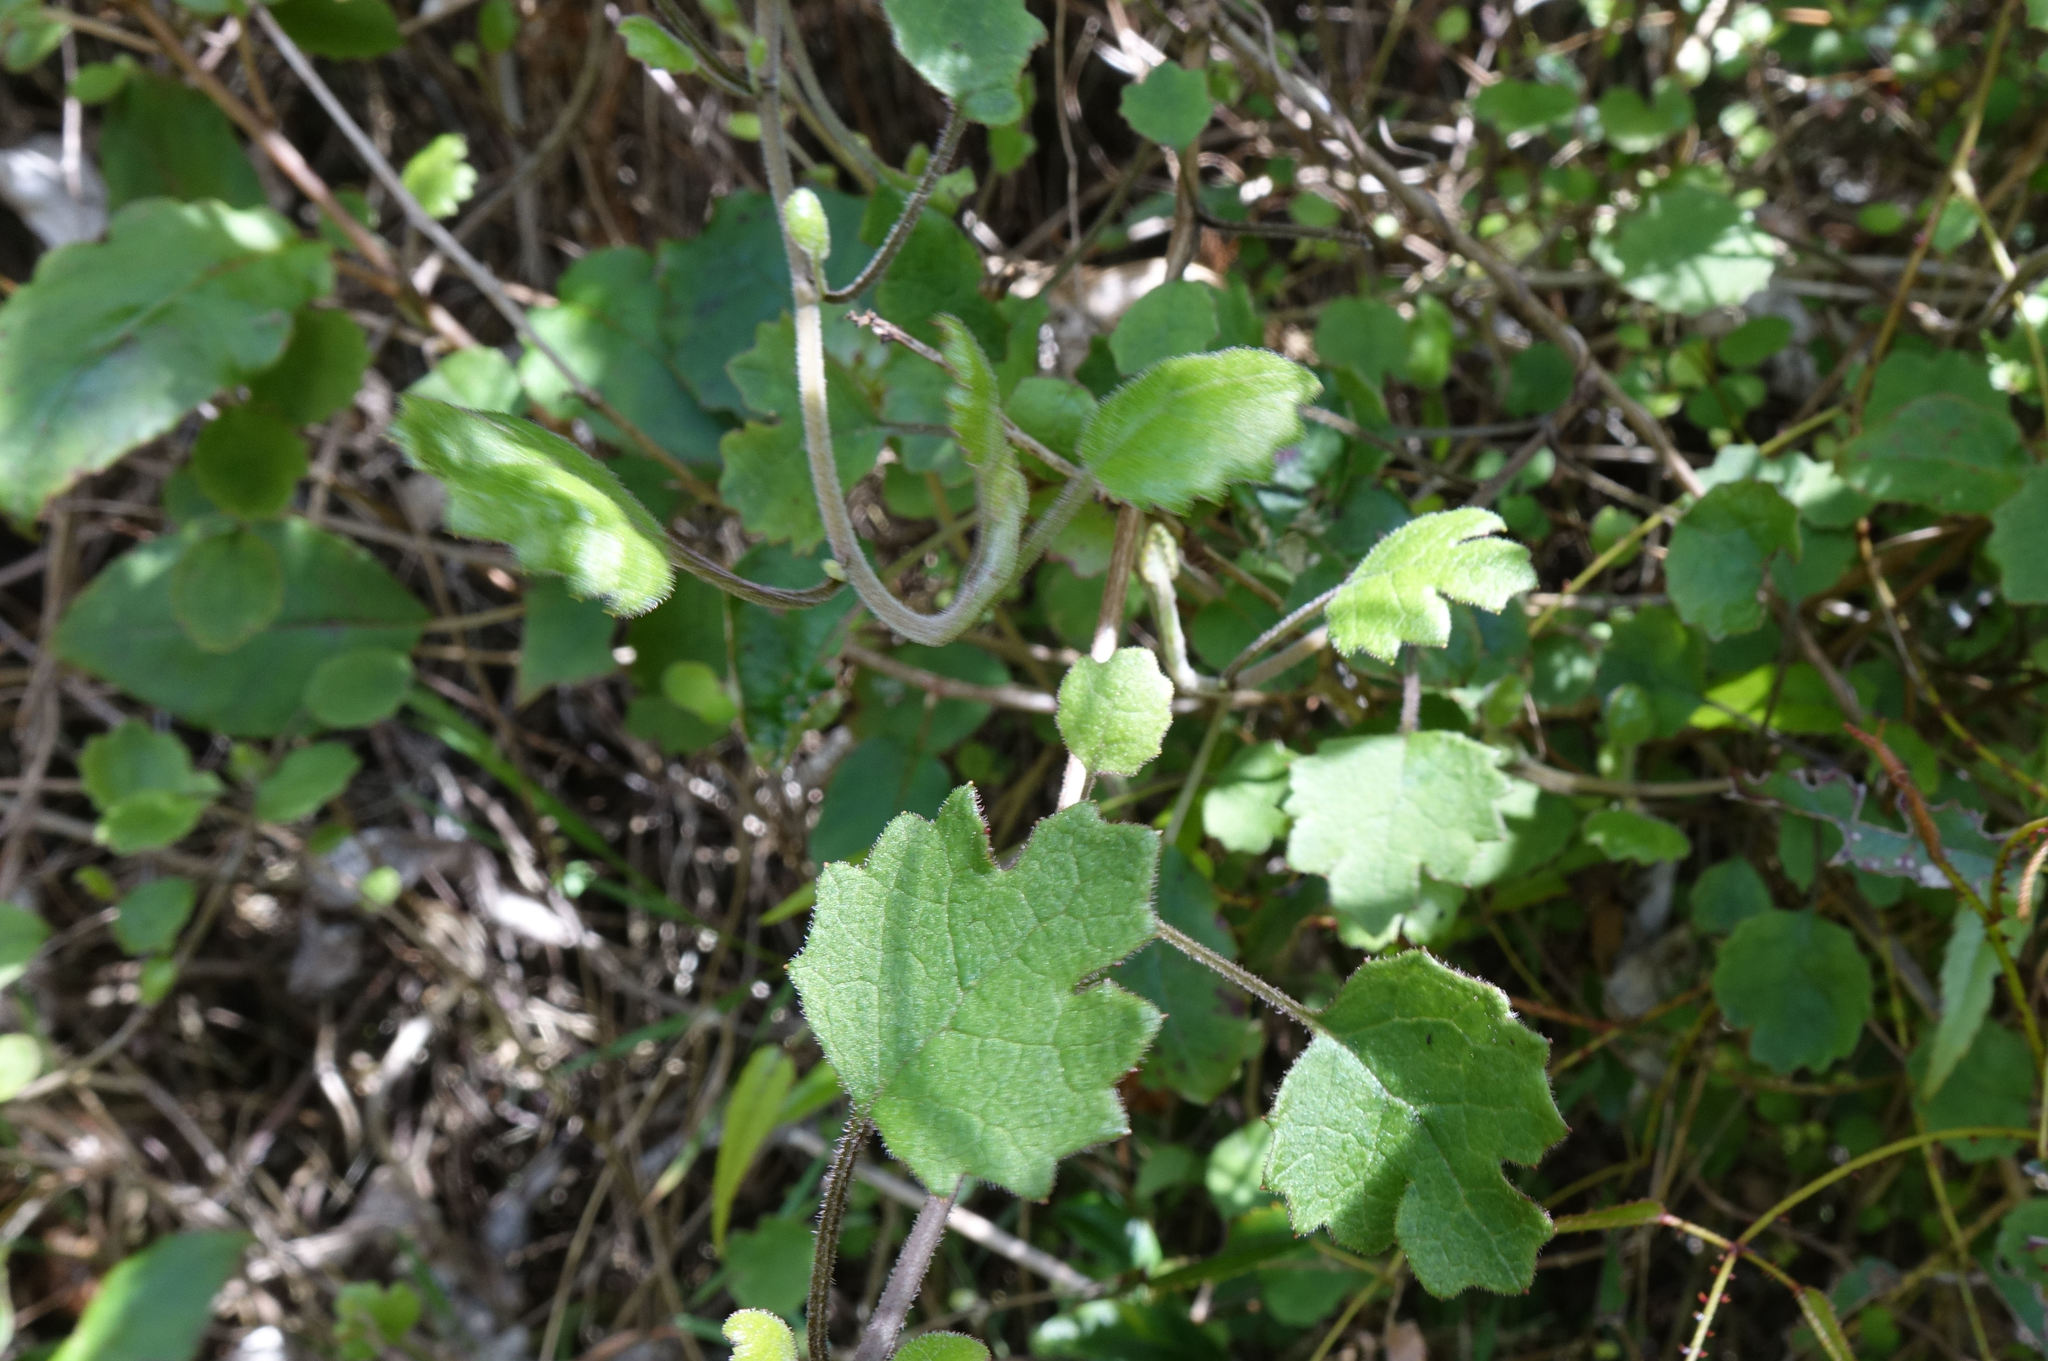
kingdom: Plantae
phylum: Tracheophyta
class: Magnoliopsida
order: Asterales
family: Asteraceae
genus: Brachyglottis
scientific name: Brachyglottis sciadophila
